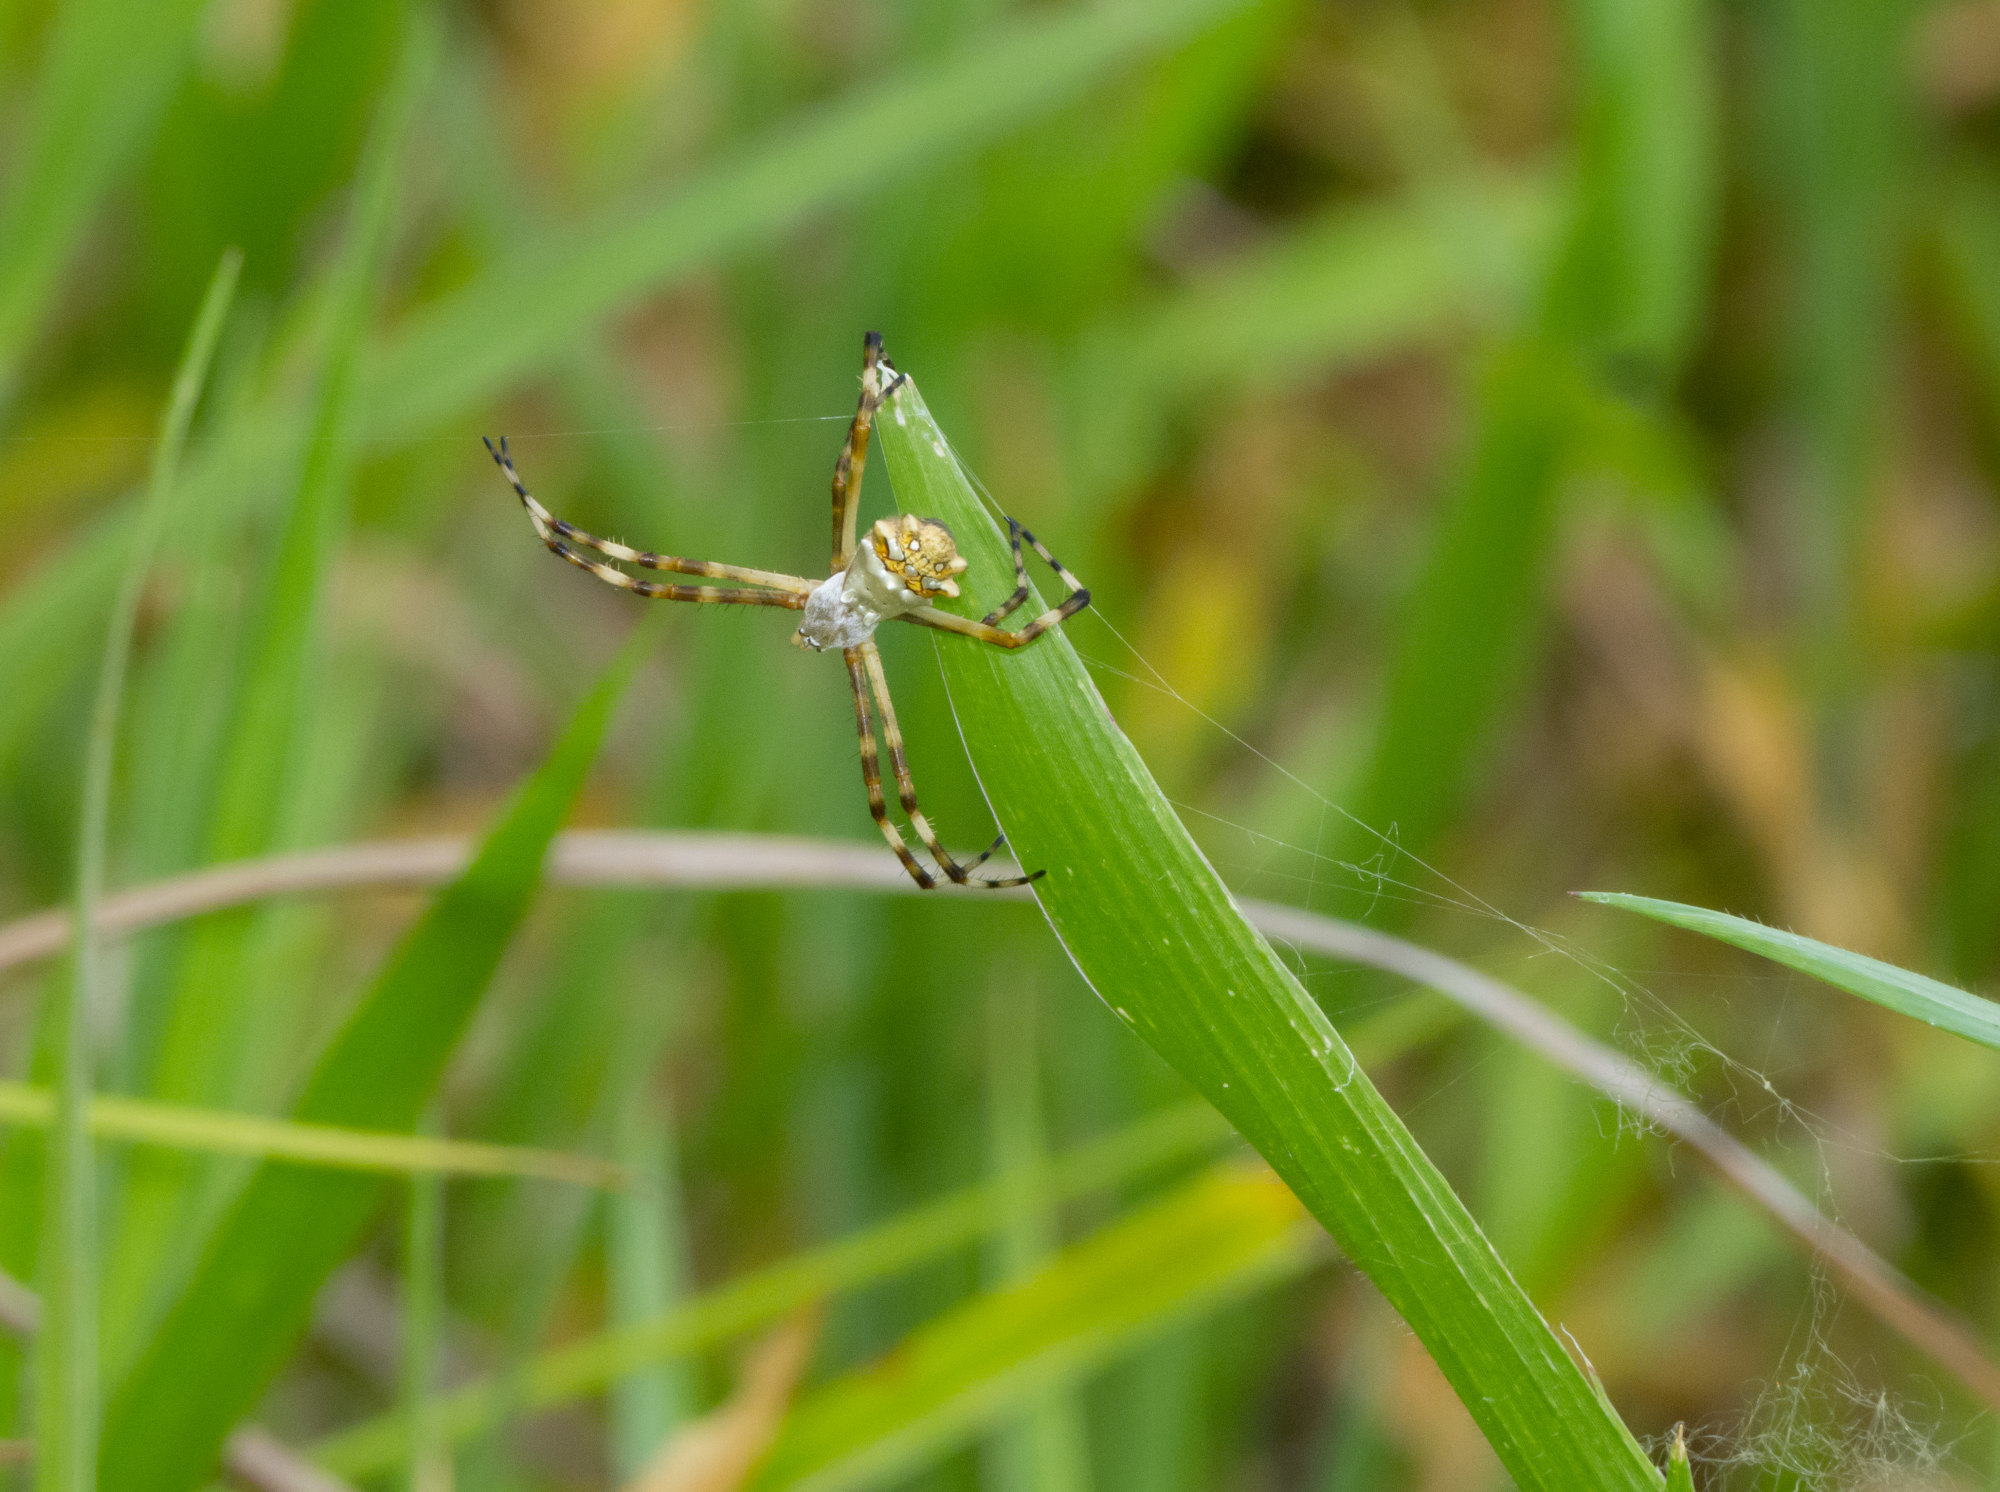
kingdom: Animalia
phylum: Arthropoda
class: Arachnida
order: Araneae
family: Araneidae
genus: Argiope
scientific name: Argiope argentata
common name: Orb weavers
